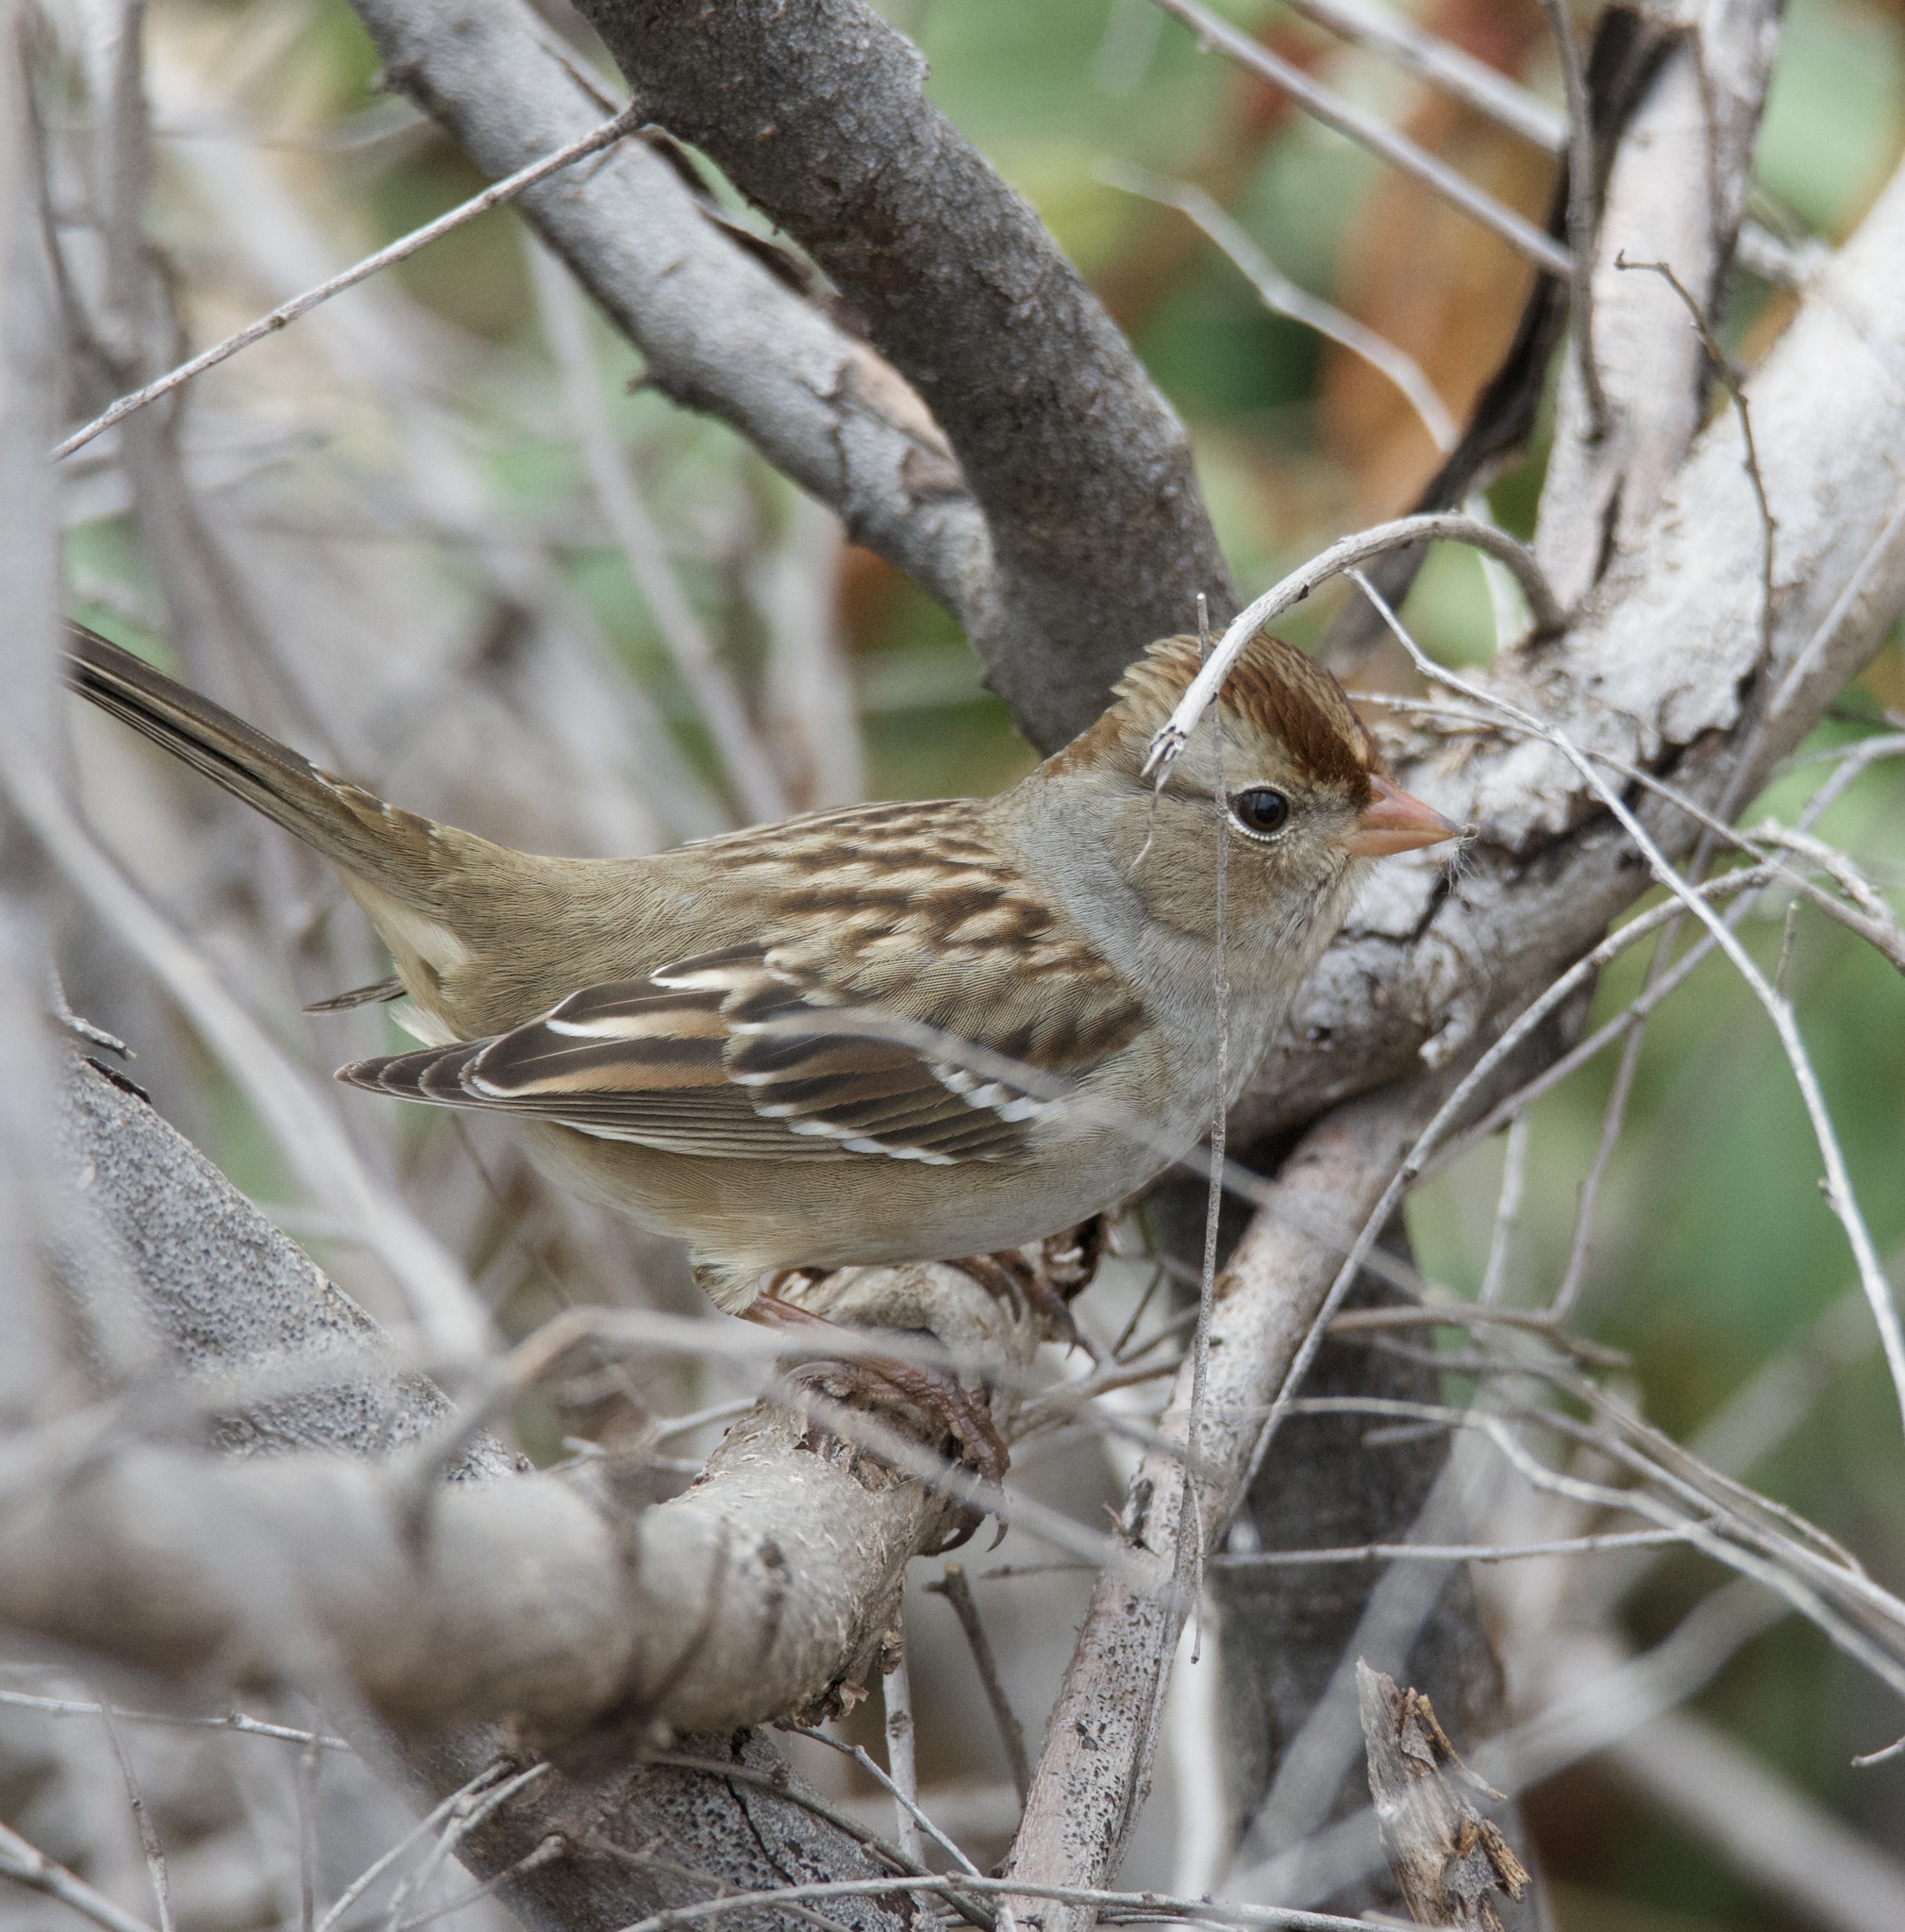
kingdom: Animalia
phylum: Chordata
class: Aves
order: Passeriformes
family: Passerellidae
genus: Zonotrichia
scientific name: Zonotrichia leucophrys
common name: White-crowned sparrow
